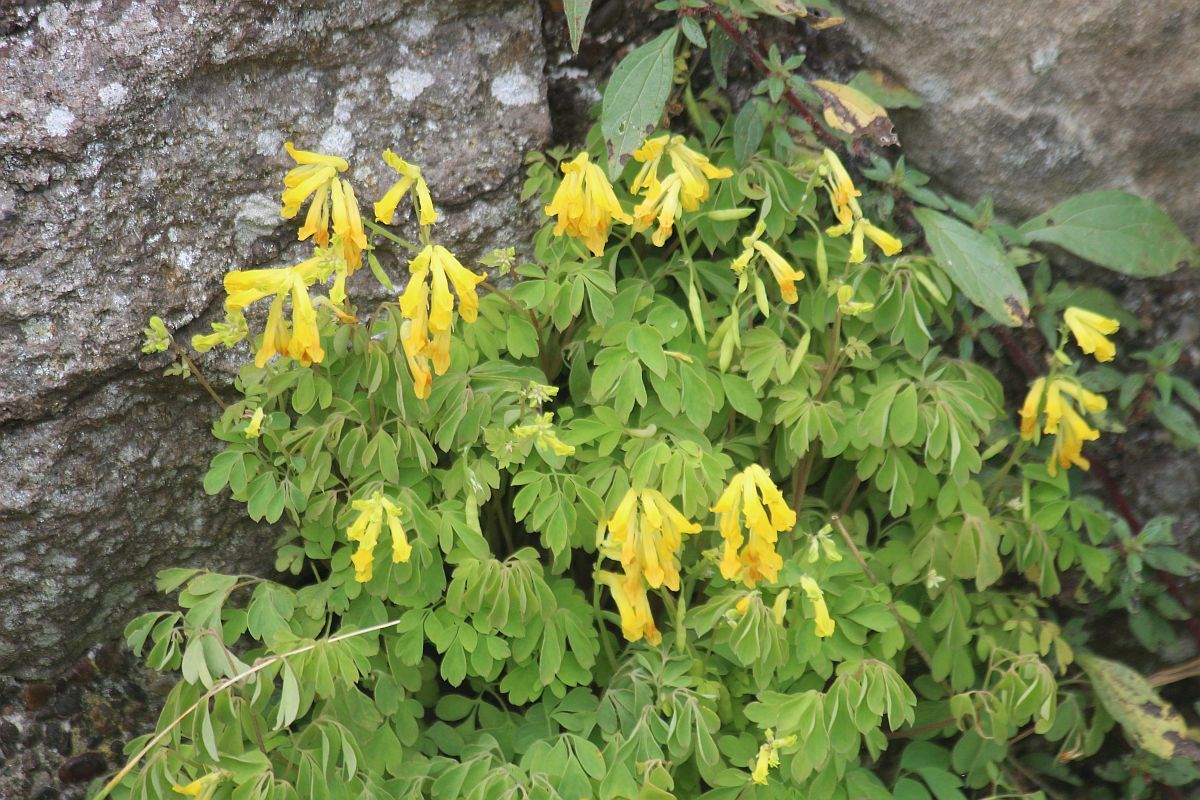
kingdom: Plantae
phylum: Tracheophyta
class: Magnoliopsida
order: Ranunculales
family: Papaveraceae
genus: Pseudofumaria
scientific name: Pseudofumaria lutea
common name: Yellow corydalis
